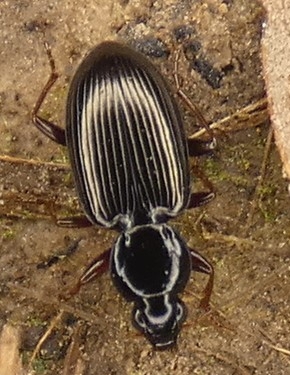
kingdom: Animalia
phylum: Arthropoda
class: Insecta
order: Coleoptera
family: Carabidae
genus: Agonum
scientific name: Agonum punctiforme
